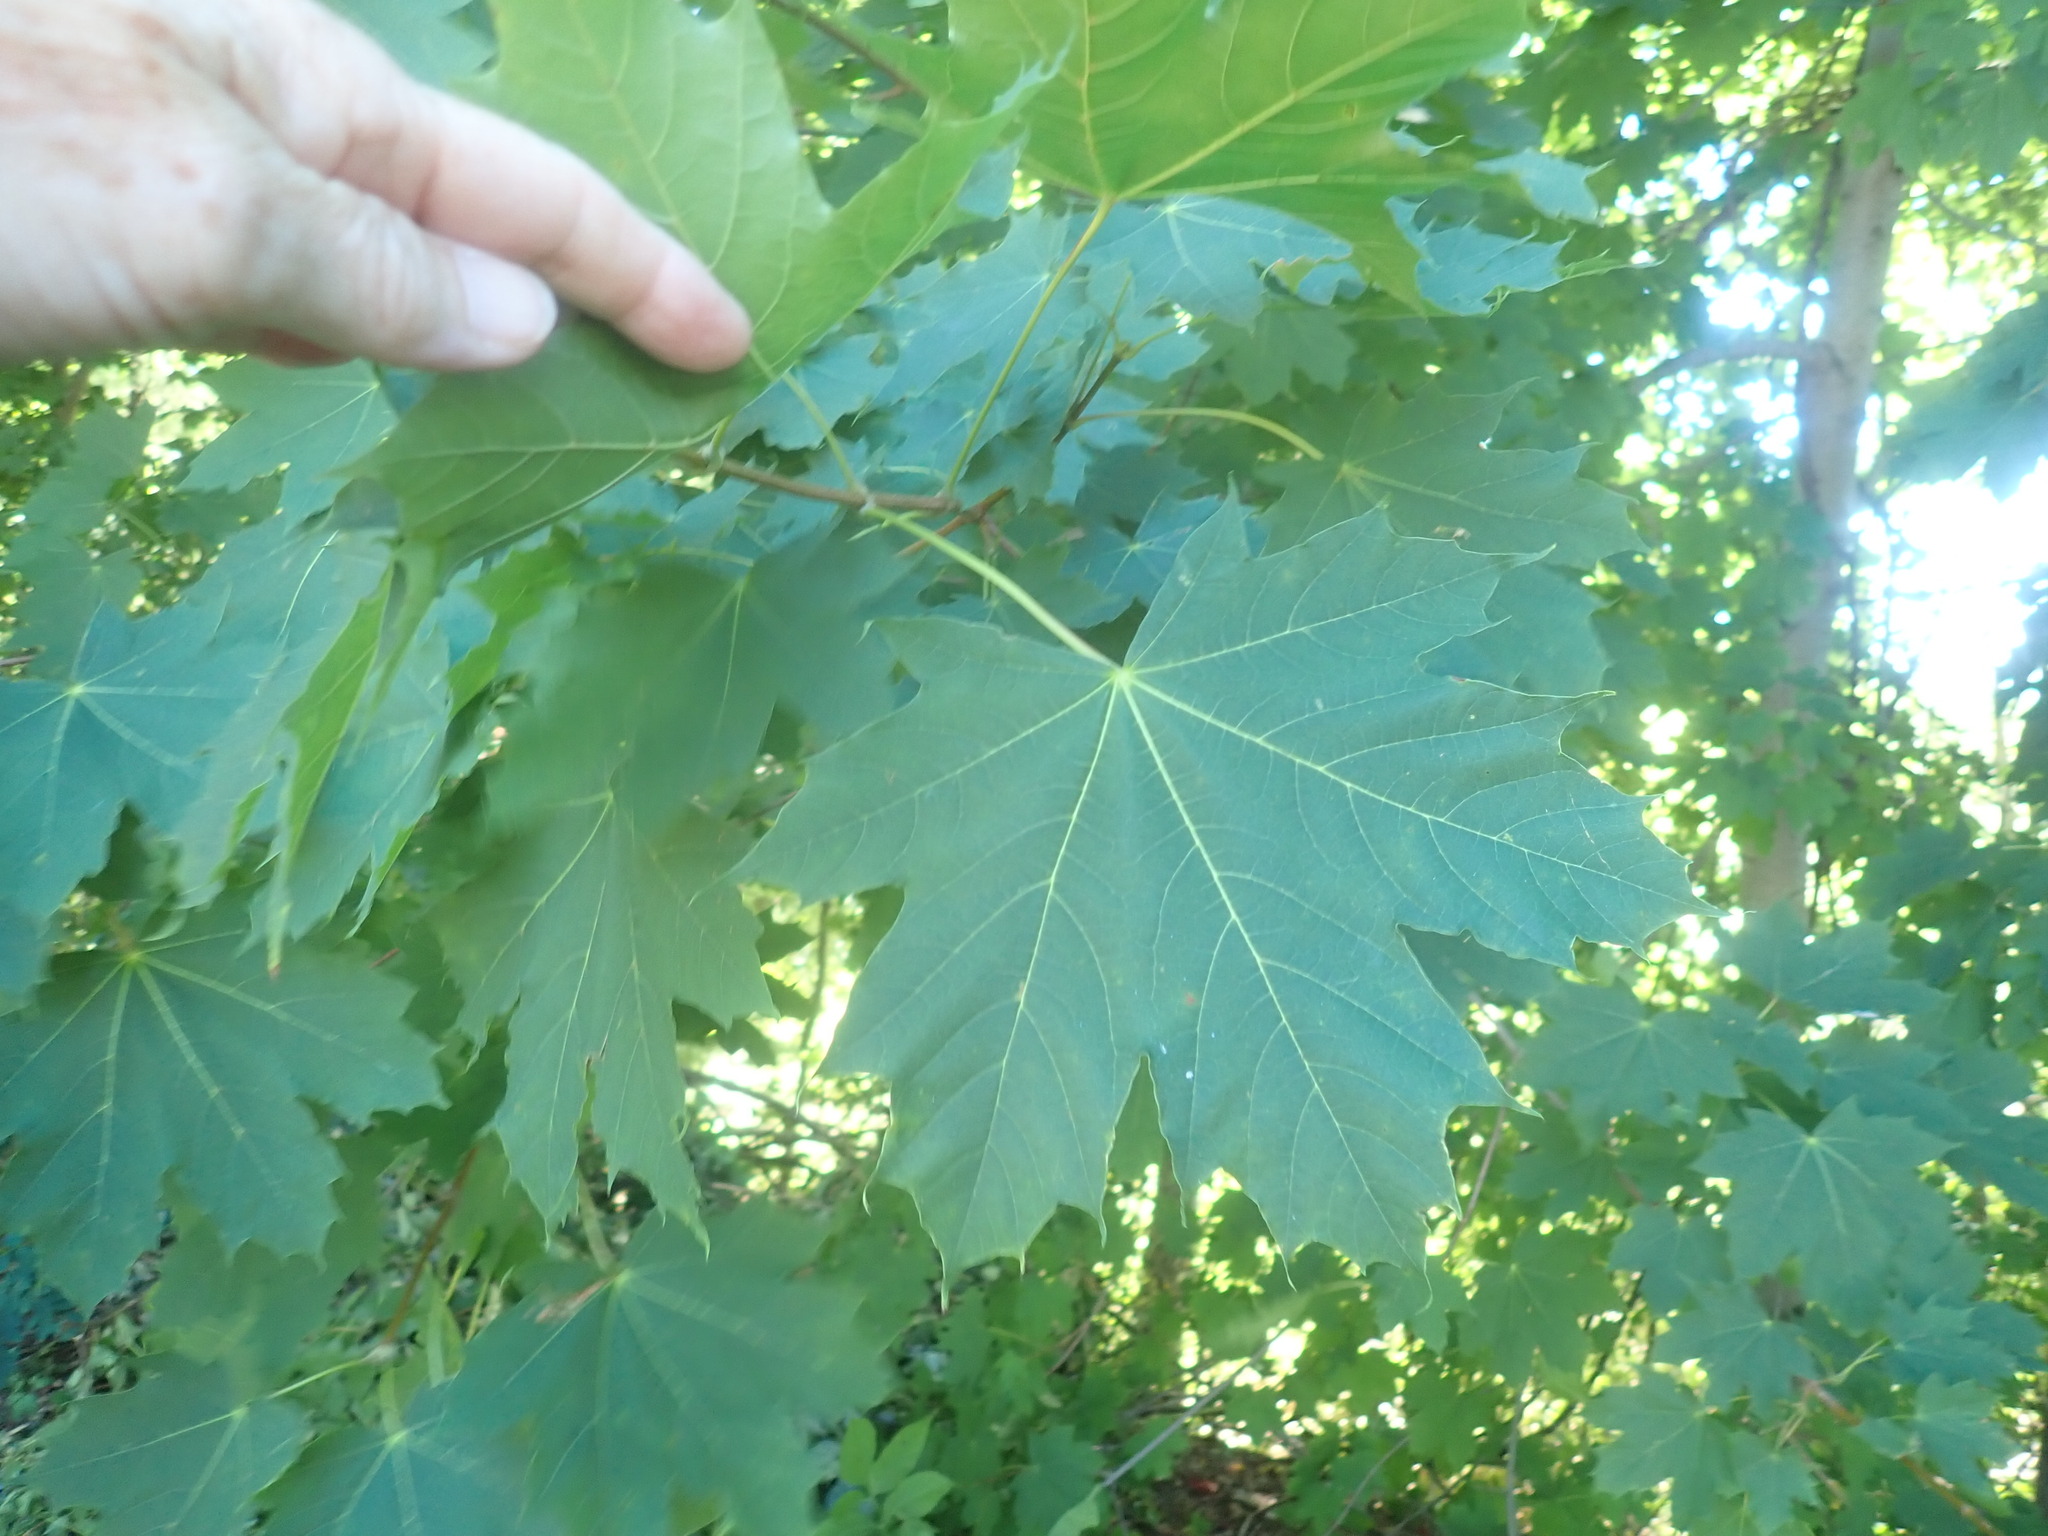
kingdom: Plantae
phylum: Tracheophyta
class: Magnoliopsida
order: Sapindales
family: Sapindaceae
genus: Acer
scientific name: Acer platanoides
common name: Norway maple
